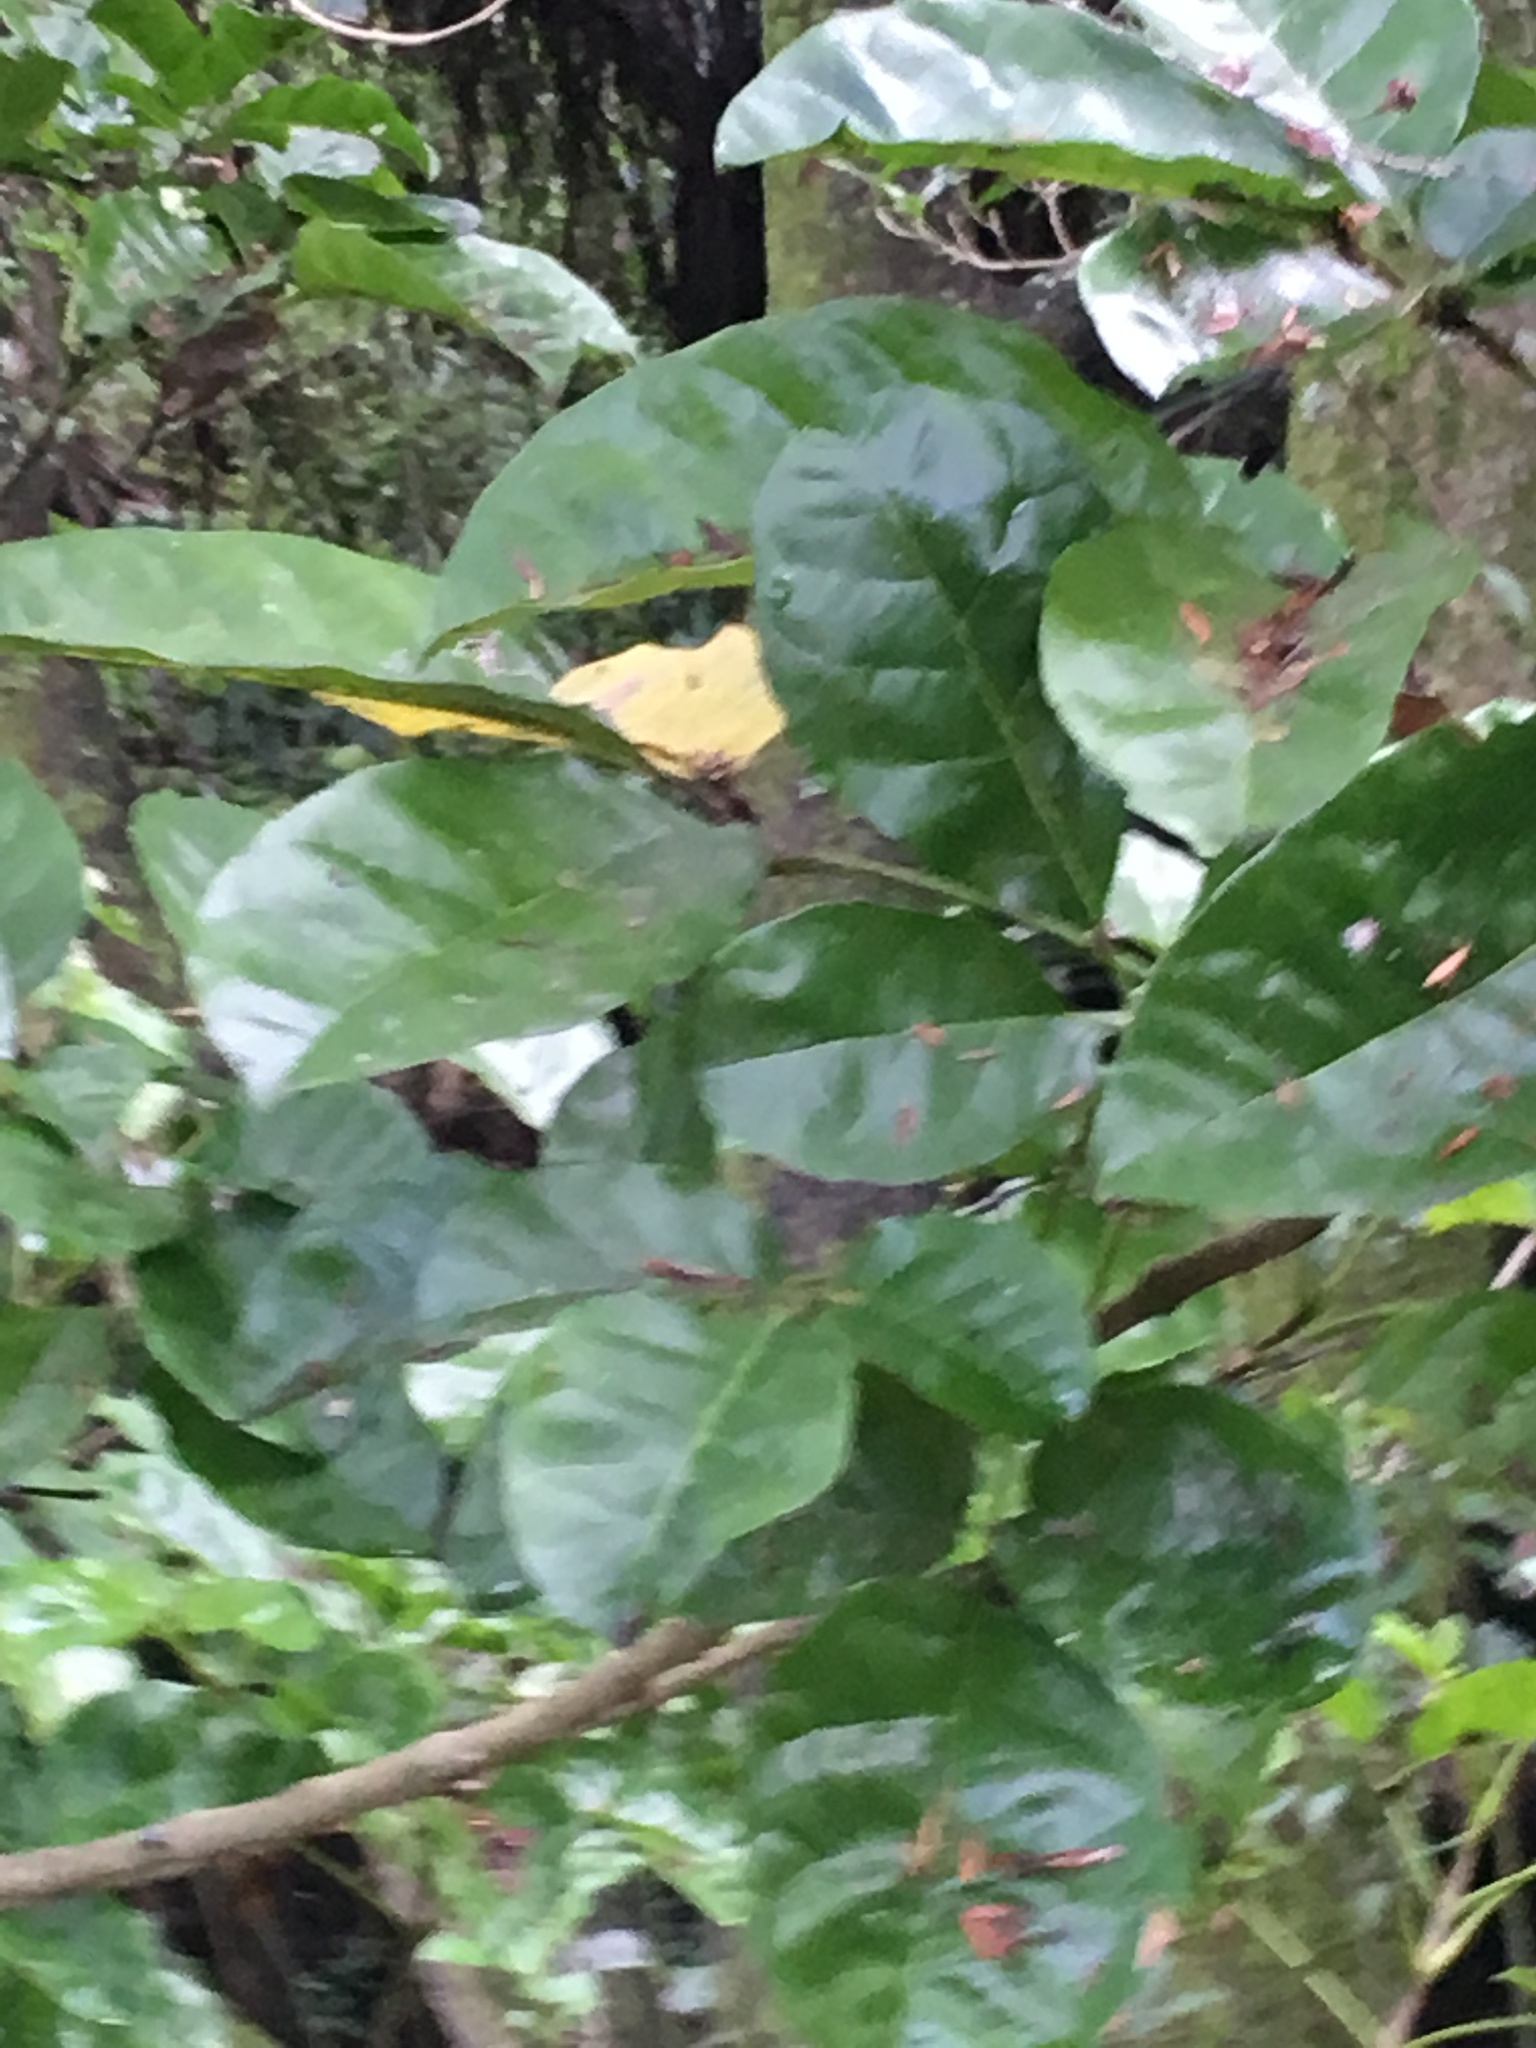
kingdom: Plantae
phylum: Tracheophyta
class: Magnoliopsida
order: Lamiales
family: Lamiaceae
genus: Vitex
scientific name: Vitex lucens
